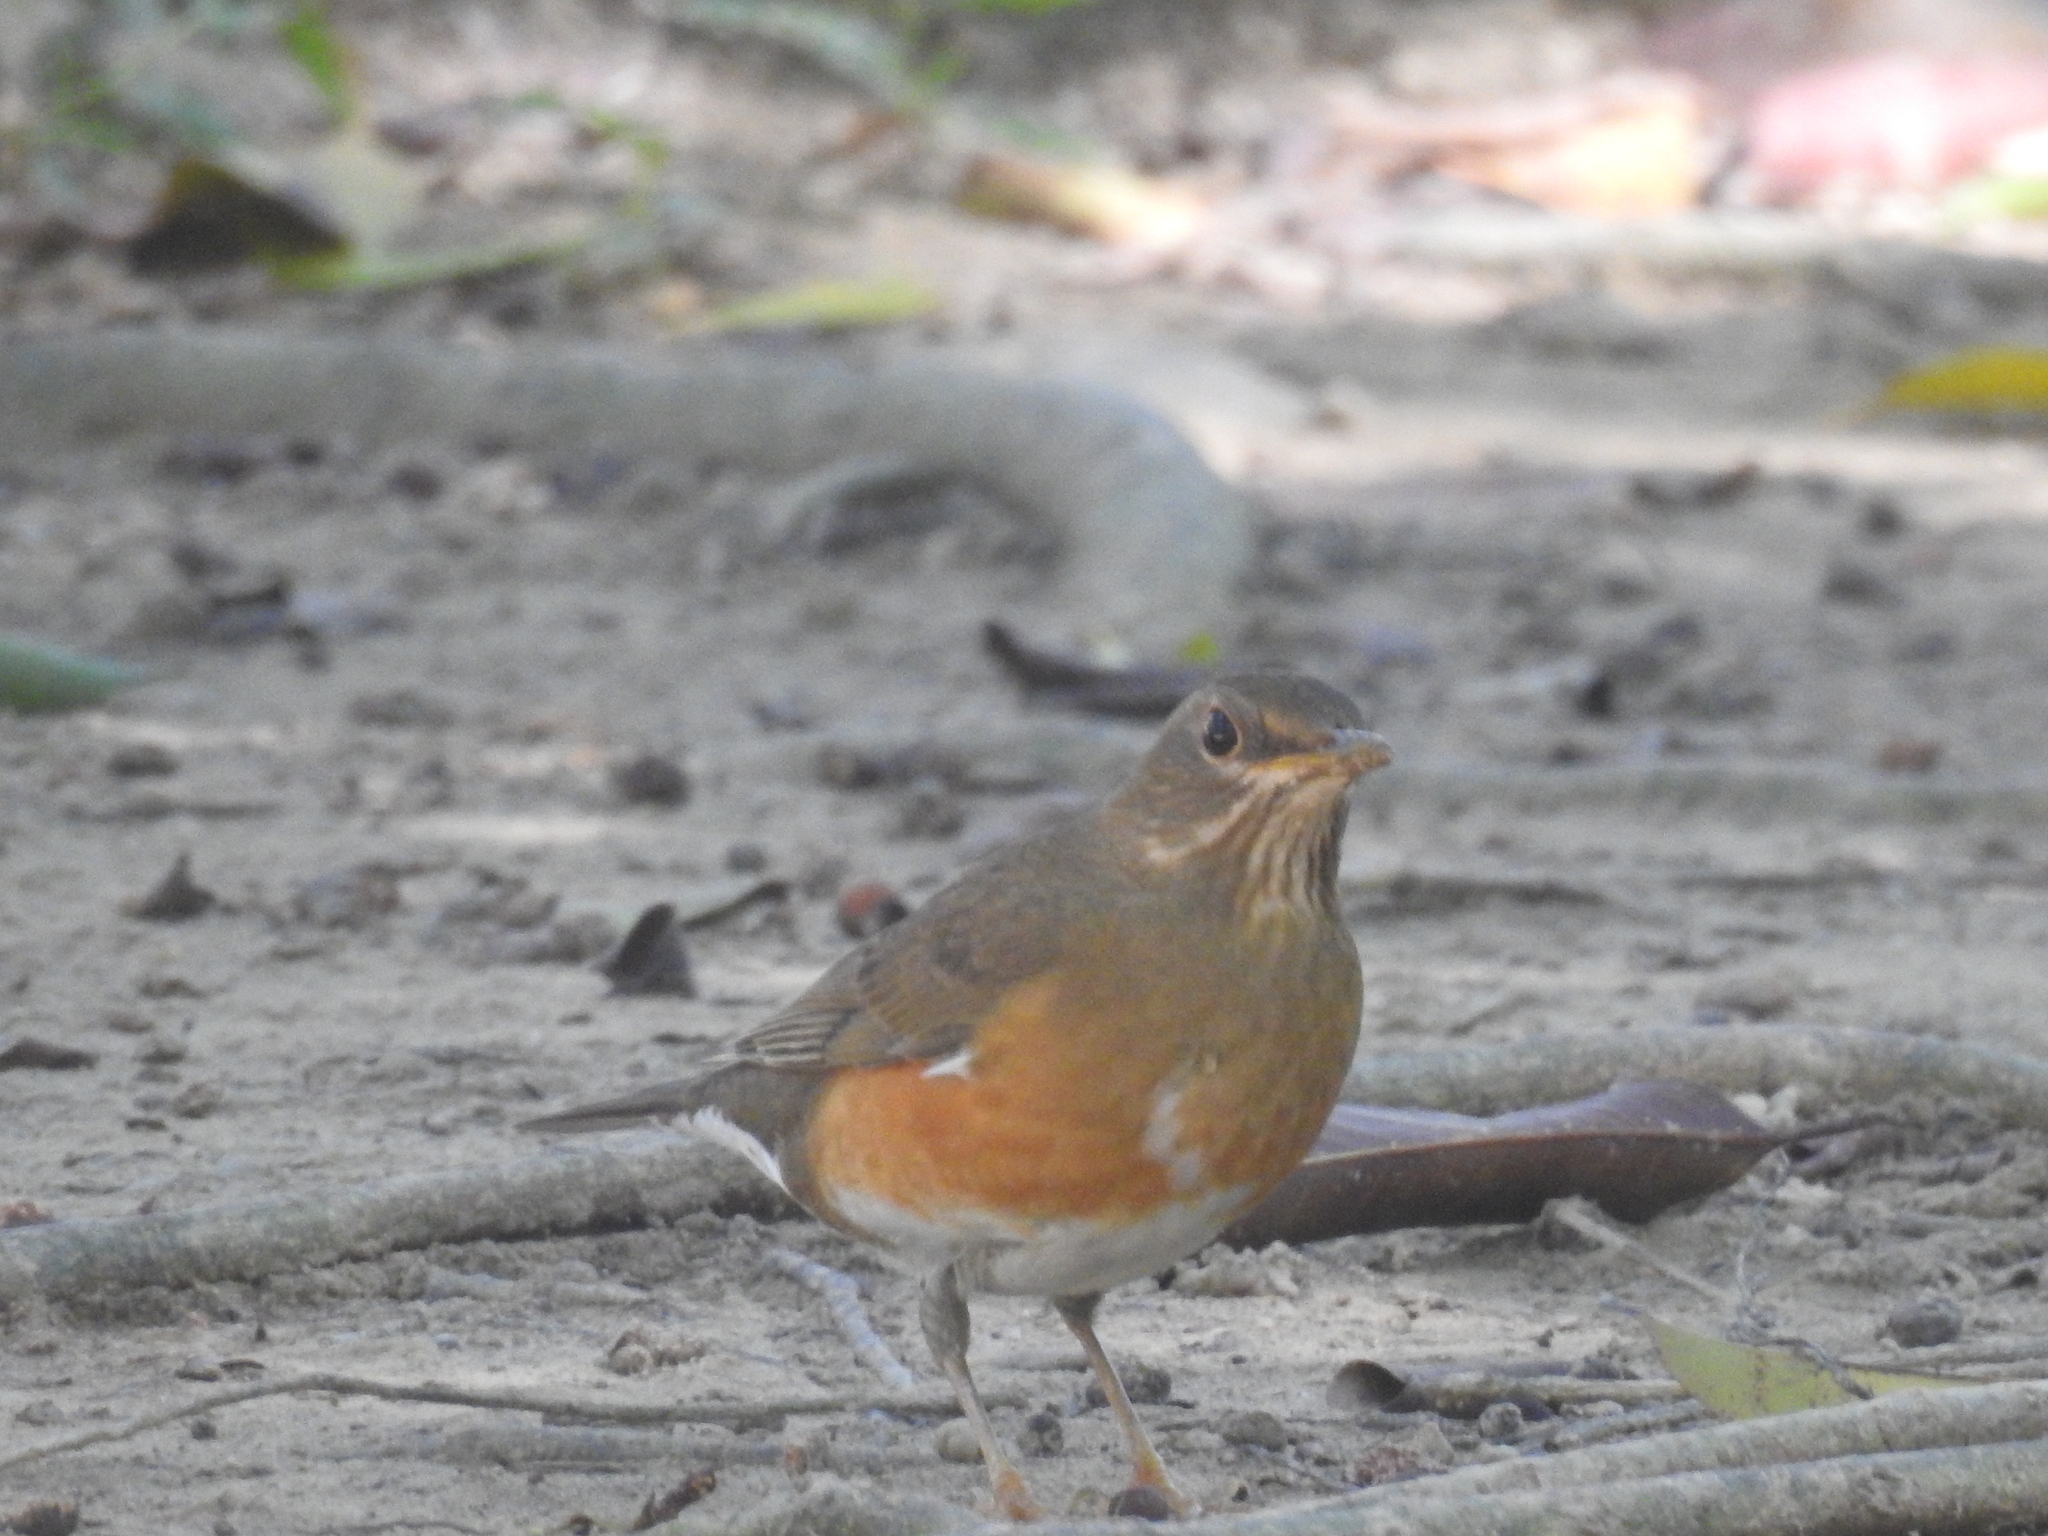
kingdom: Animalia
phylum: Chordata
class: Aves
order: Passeriformes
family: Turdidae
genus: Turdus
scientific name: Turdus chrysolaus
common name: Brown-headed thrush
